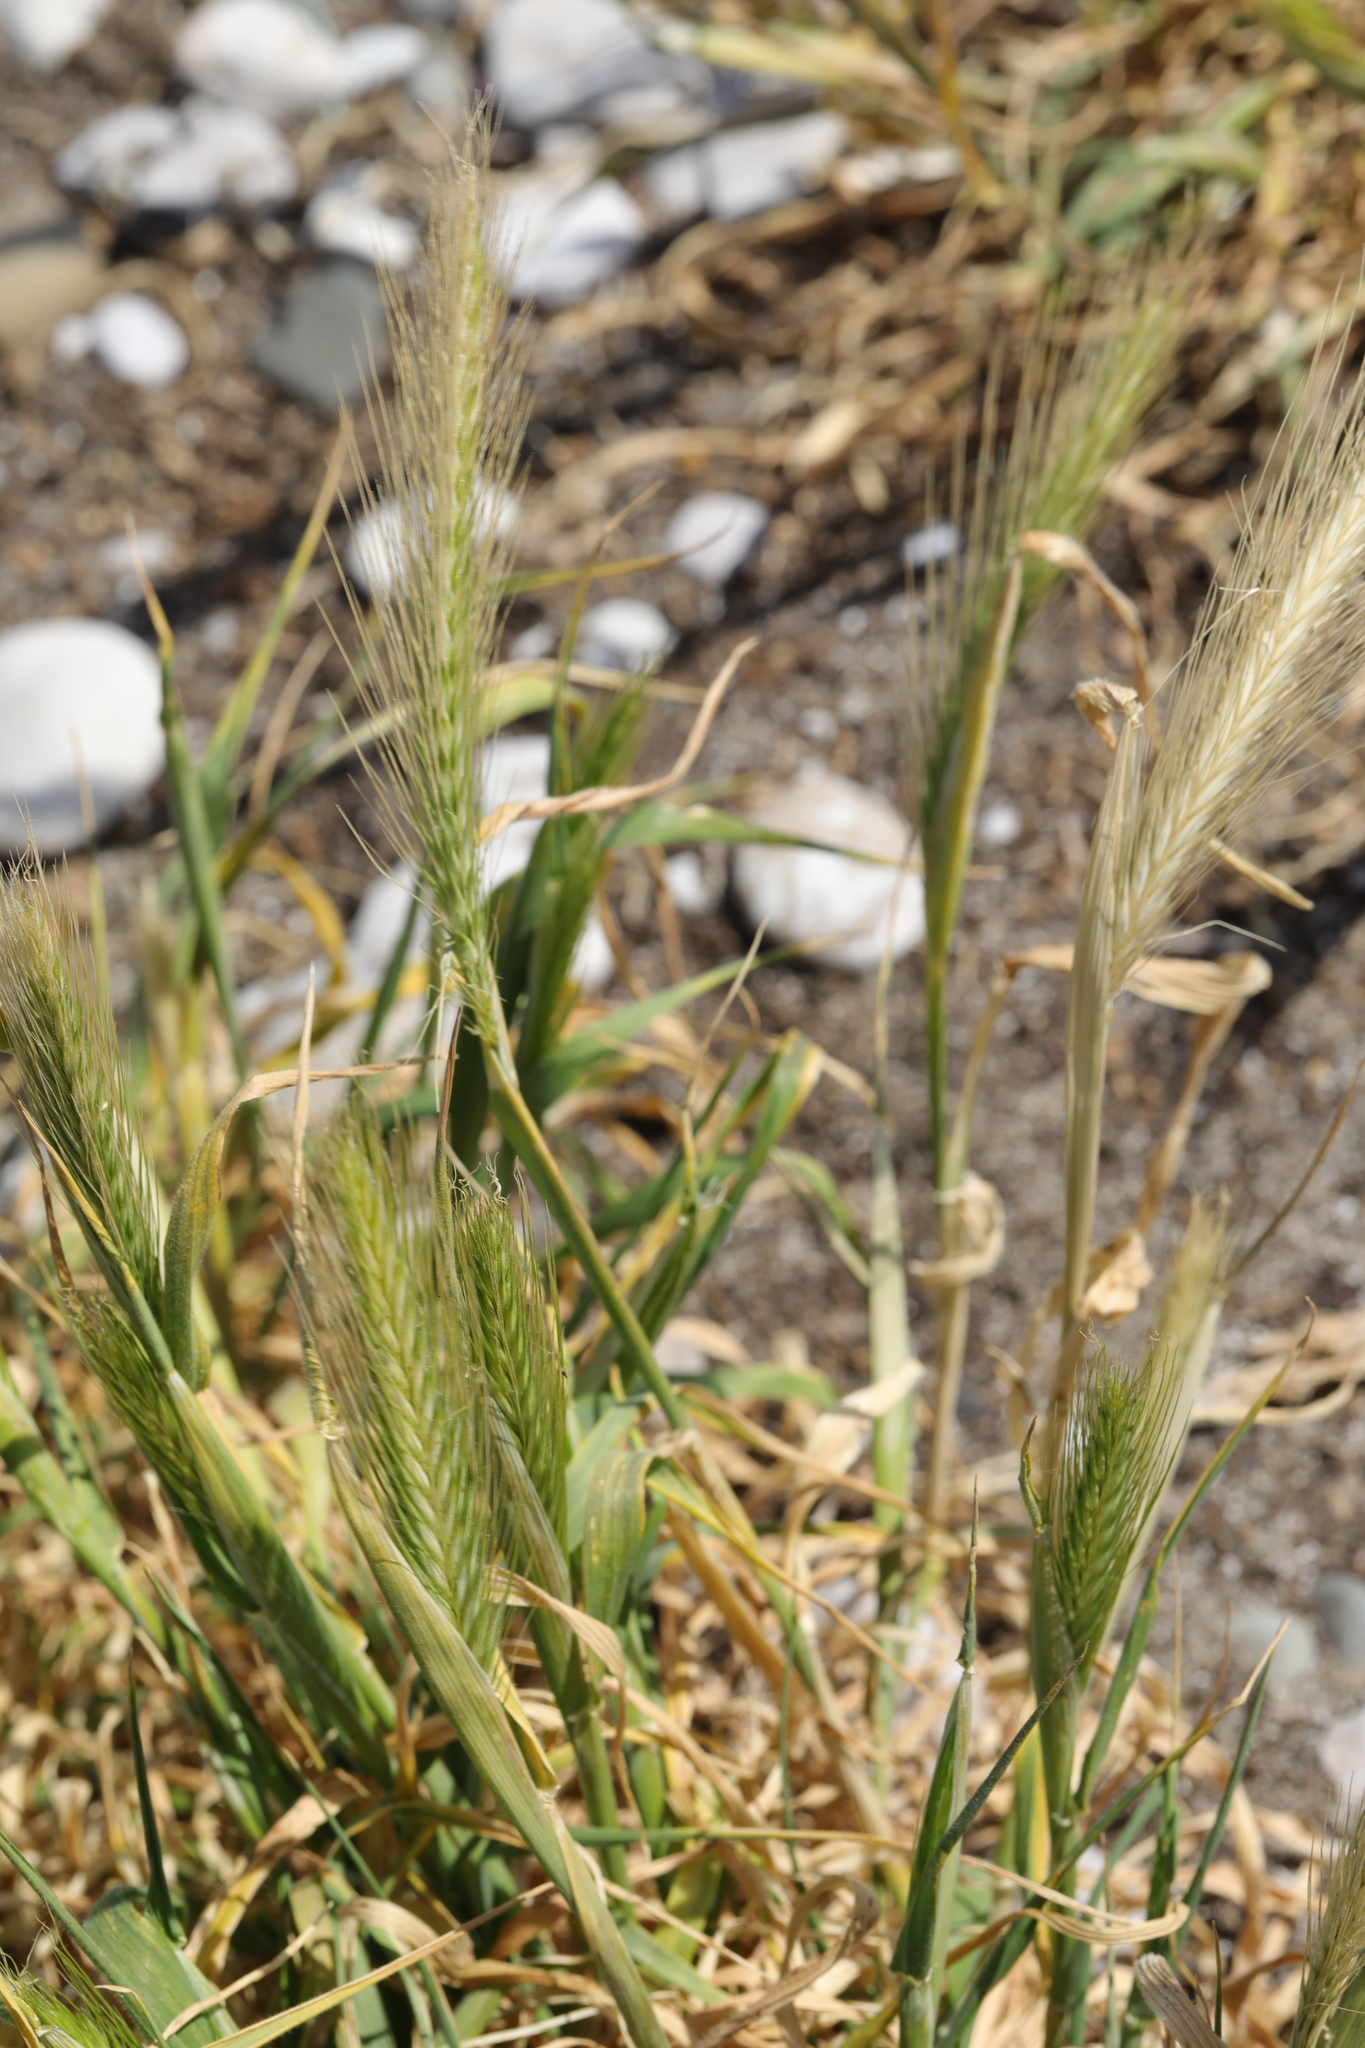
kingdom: Plantae
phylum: Tracheophyta
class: Liliopsida
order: Poales
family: Poaceae
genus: Hordeum
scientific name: Hordeum murinum
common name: Wall barley
